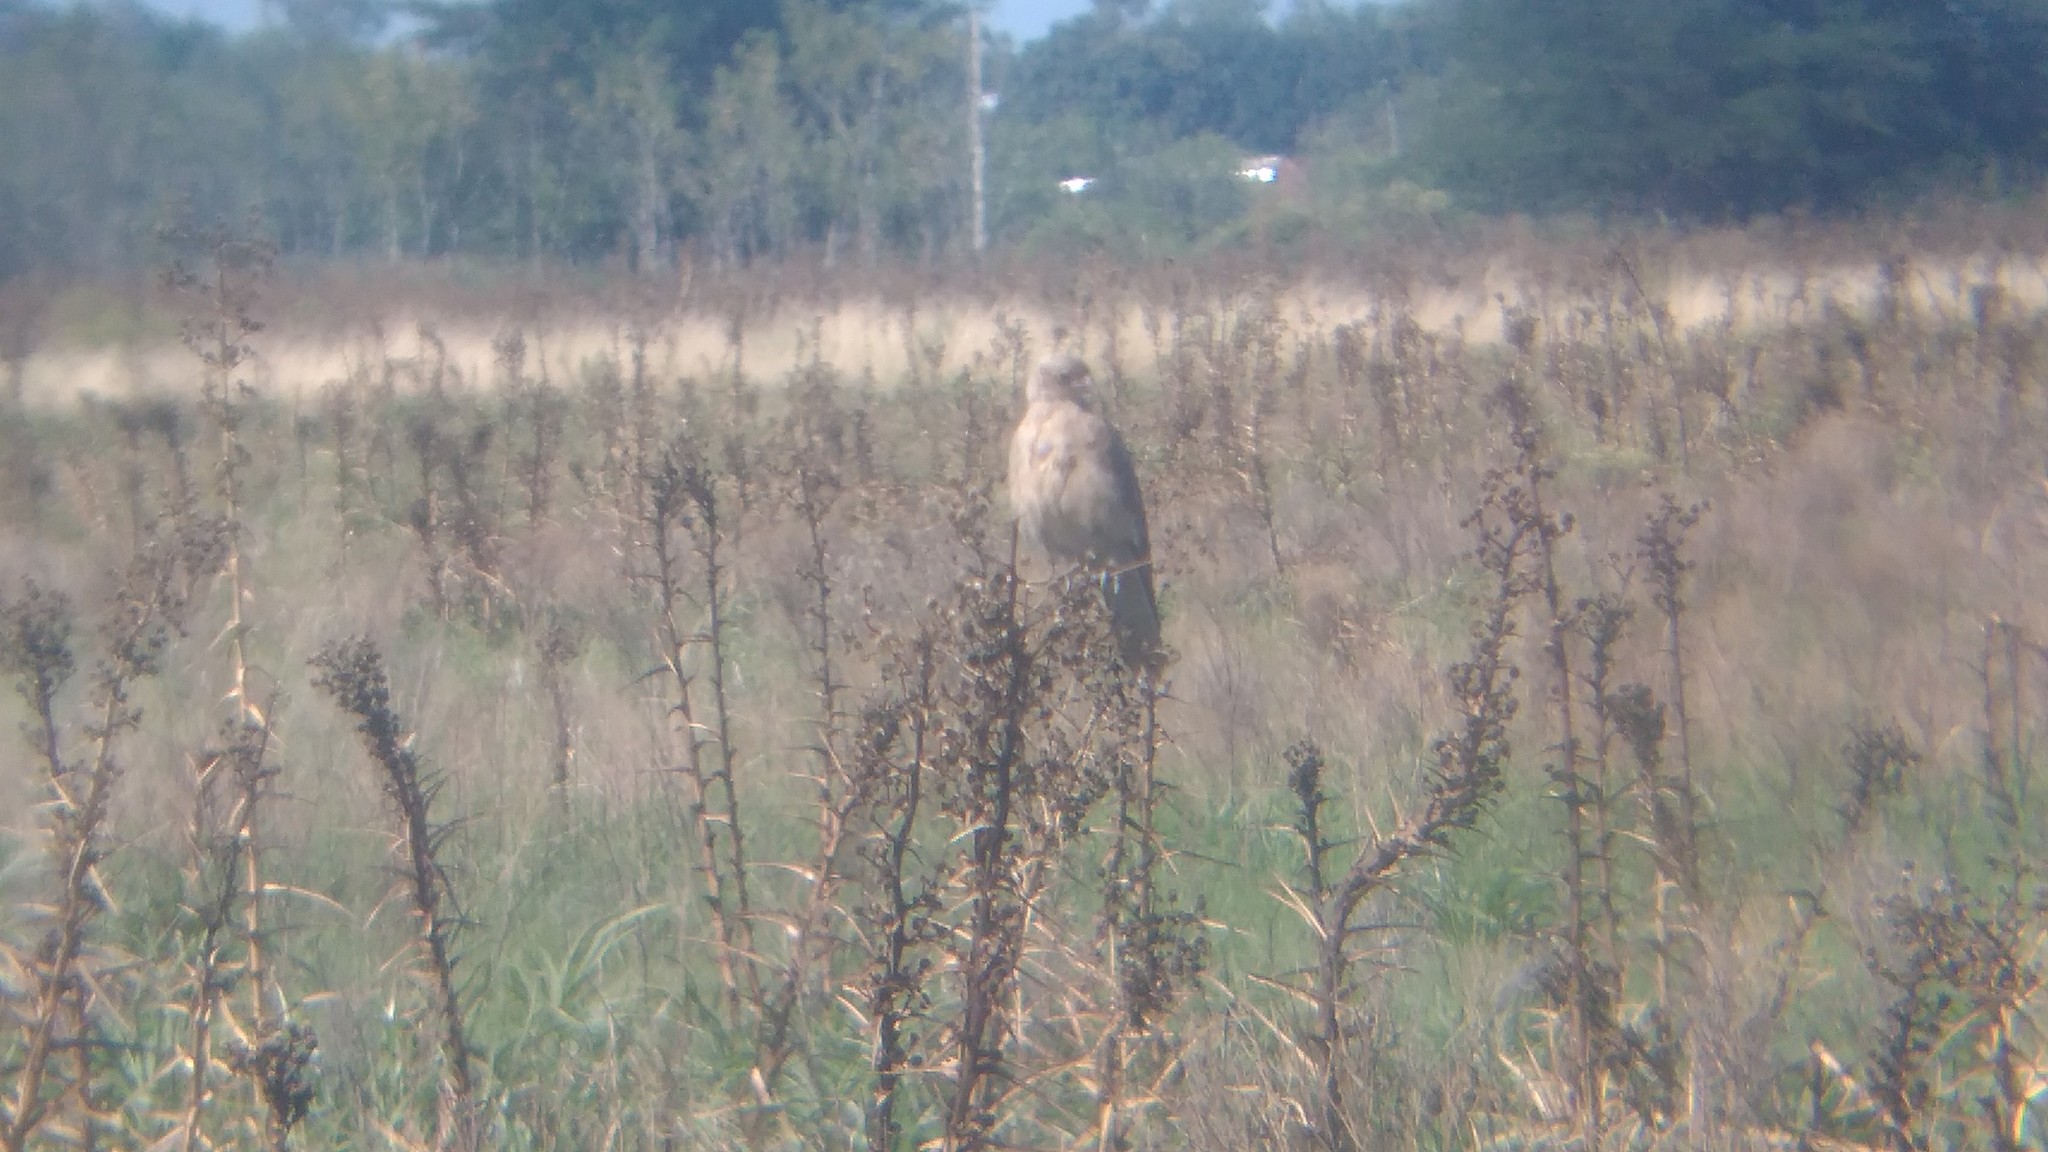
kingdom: Animalia
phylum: Chordata
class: Aves
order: Falconiformes
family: Falconidae
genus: Daptrius
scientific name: Daptrius
